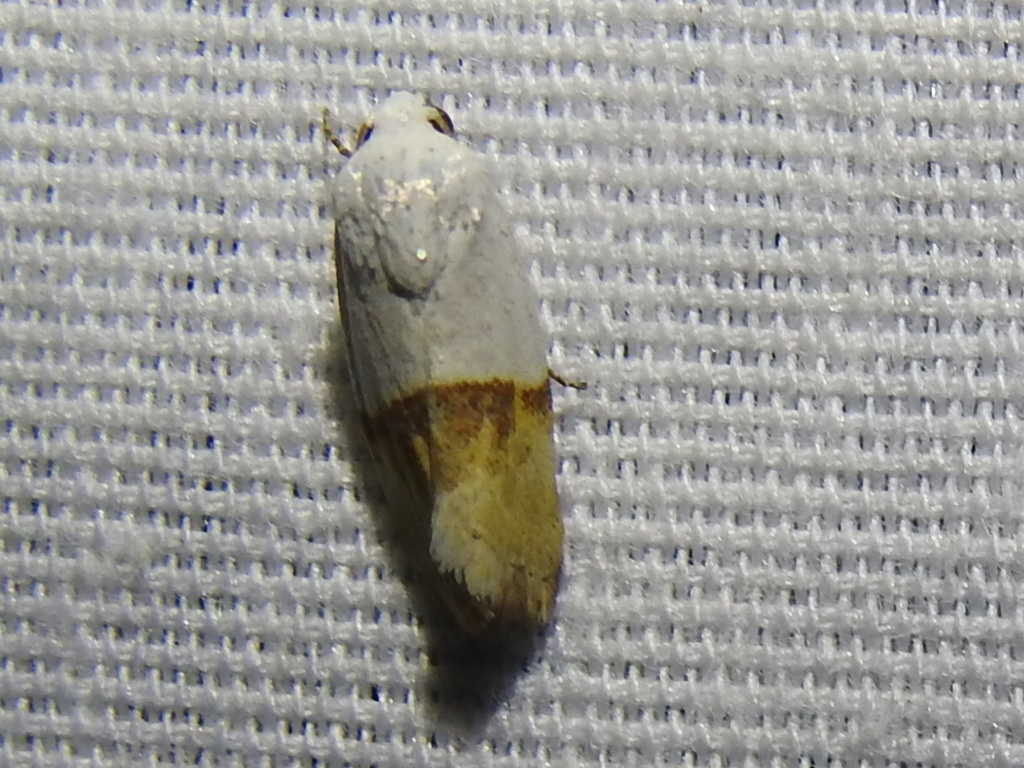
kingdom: Animalia
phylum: Arthropoda
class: Insecta
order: Lepidoptera
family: Noctuidae
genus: Ponometia
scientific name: Ponometia elegantula
